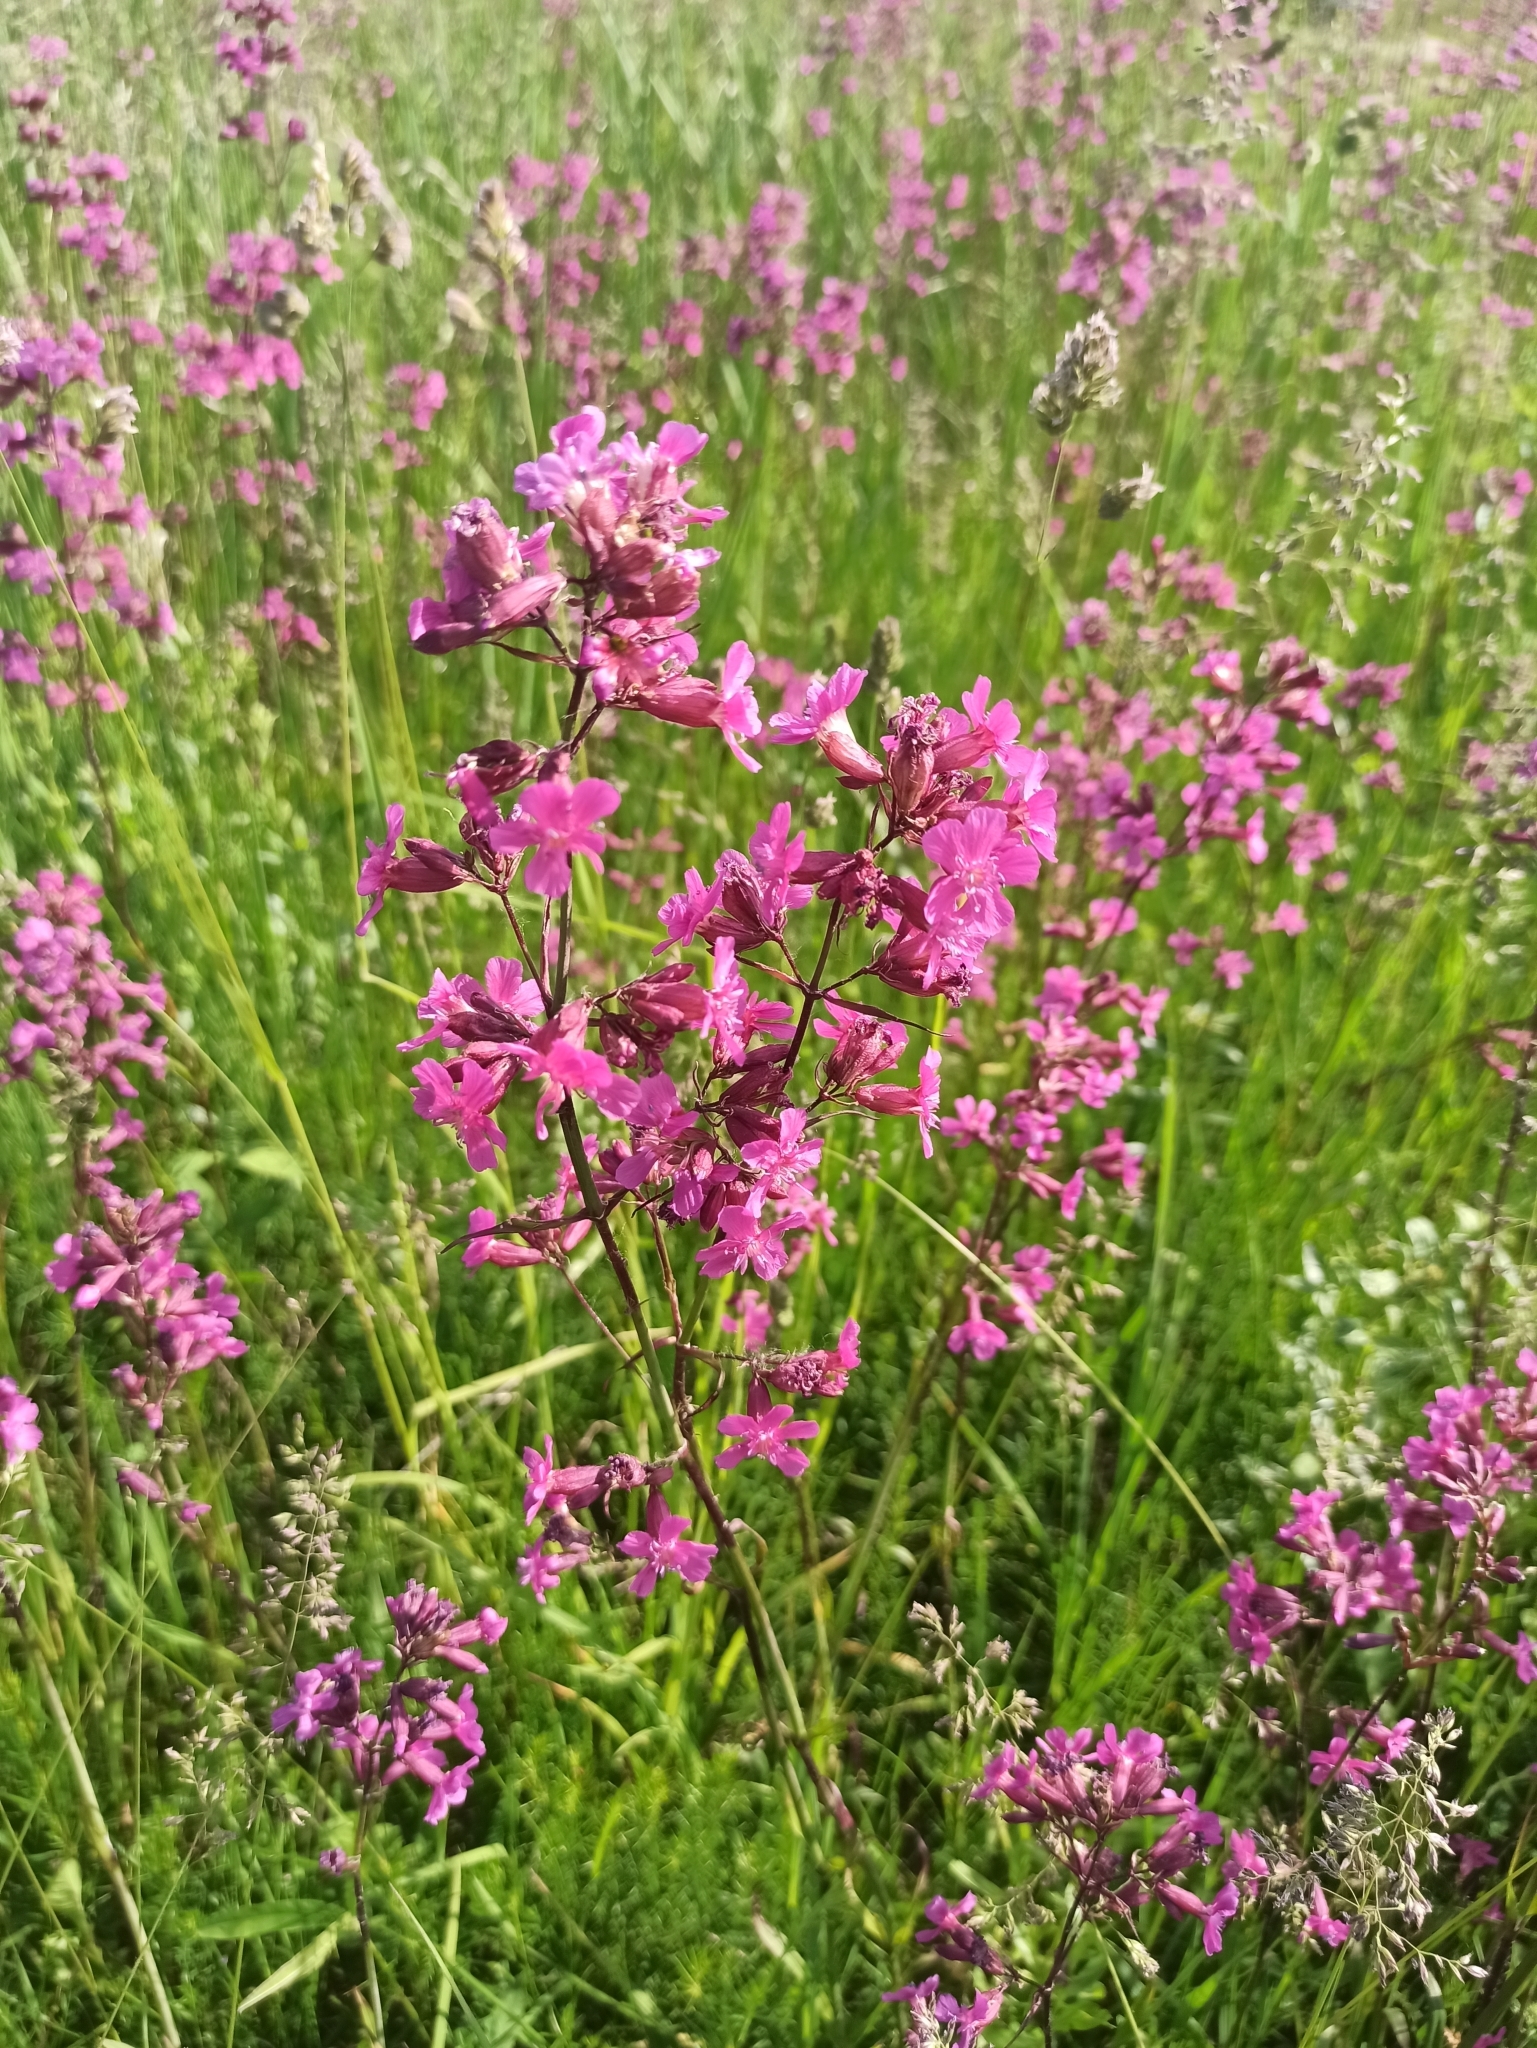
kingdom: Plantae
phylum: Tracheophyta
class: Magnoliopsida
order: Caryophyllales
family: Caryophyllaceae
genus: Viscaria
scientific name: Viscaria vulgaris
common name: Clammy campion
